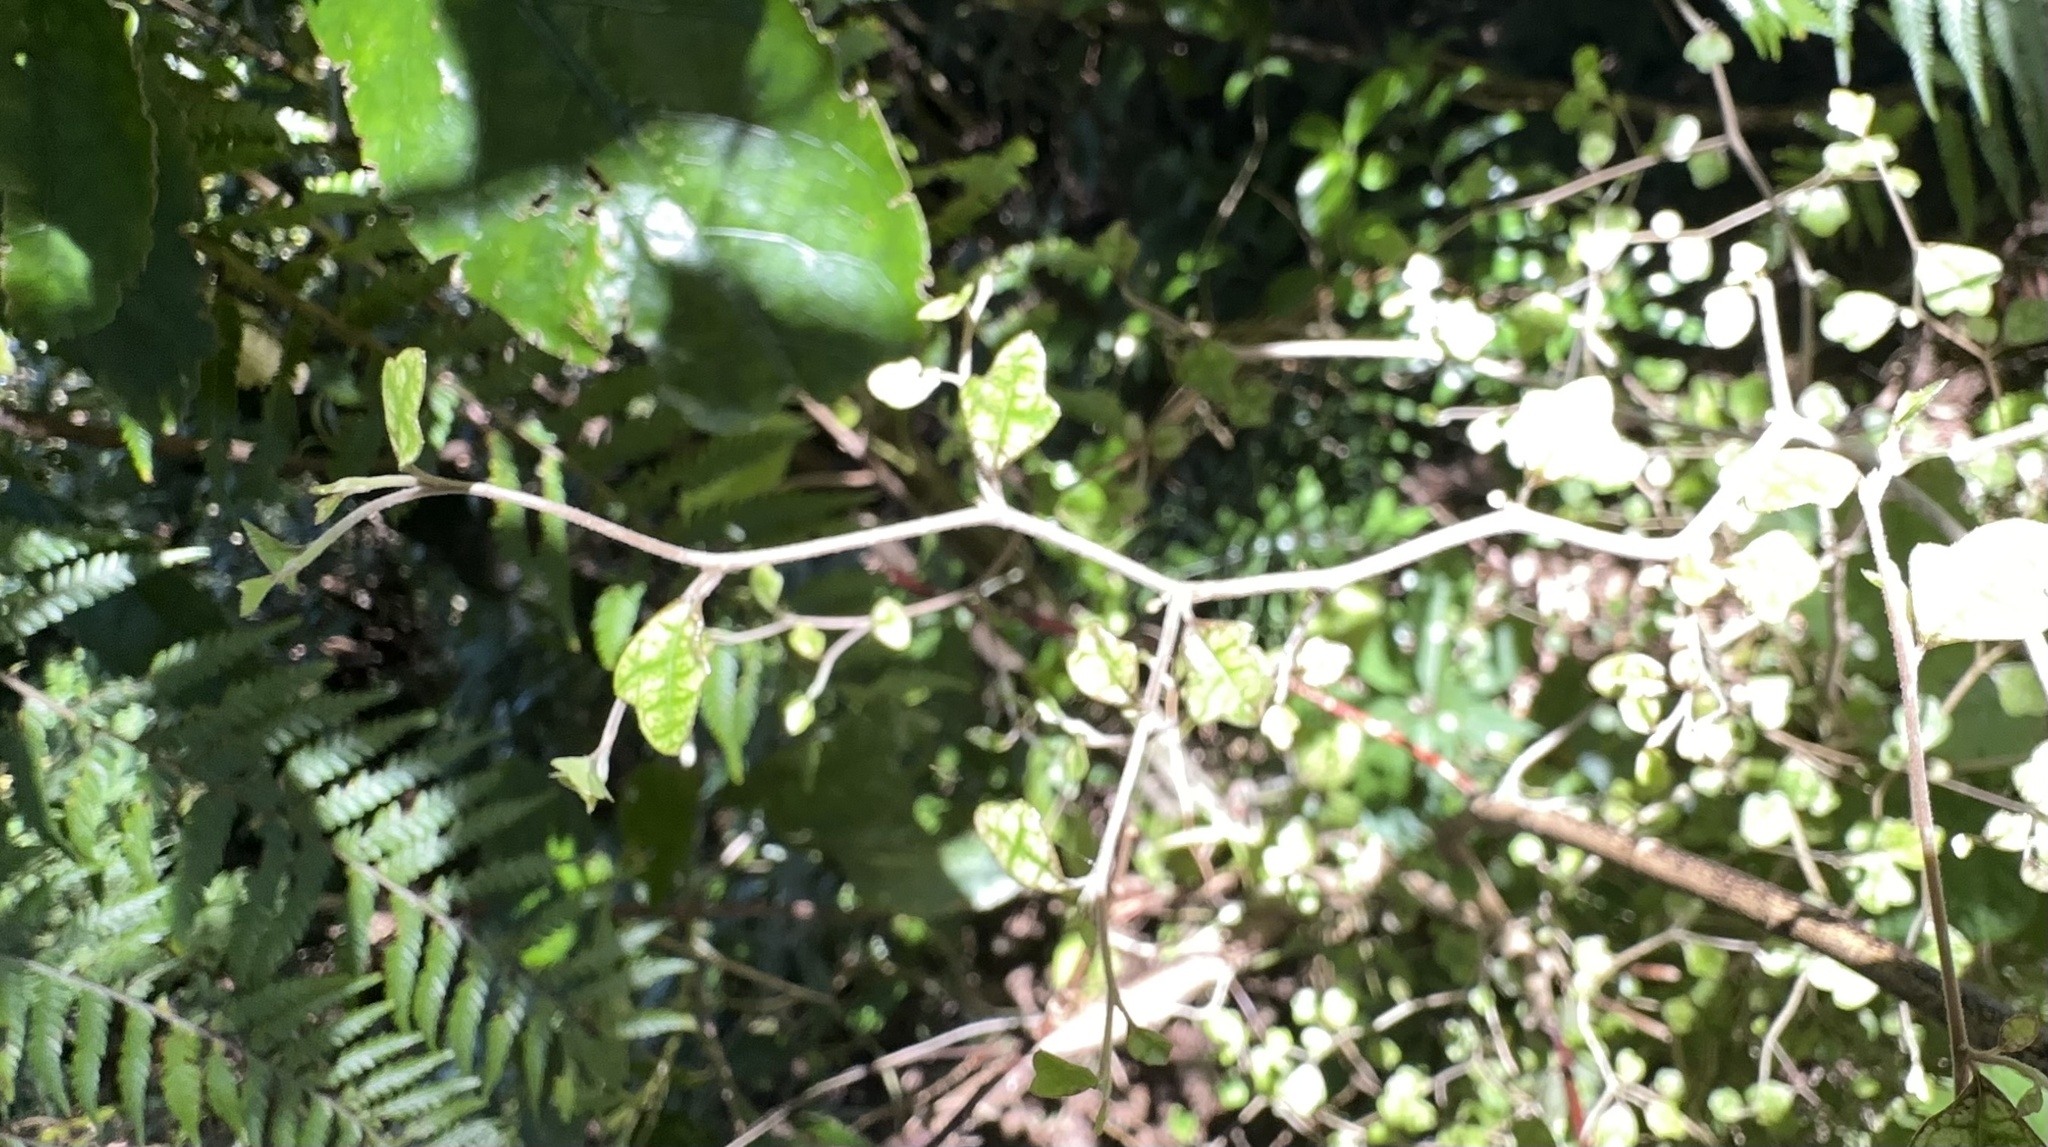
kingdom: Plantae
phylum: Tracheophyta
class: Magnoliopsida
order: Apiales
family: Pennantiaceae
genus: Pennantia
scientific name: Pennantia corymbosa
